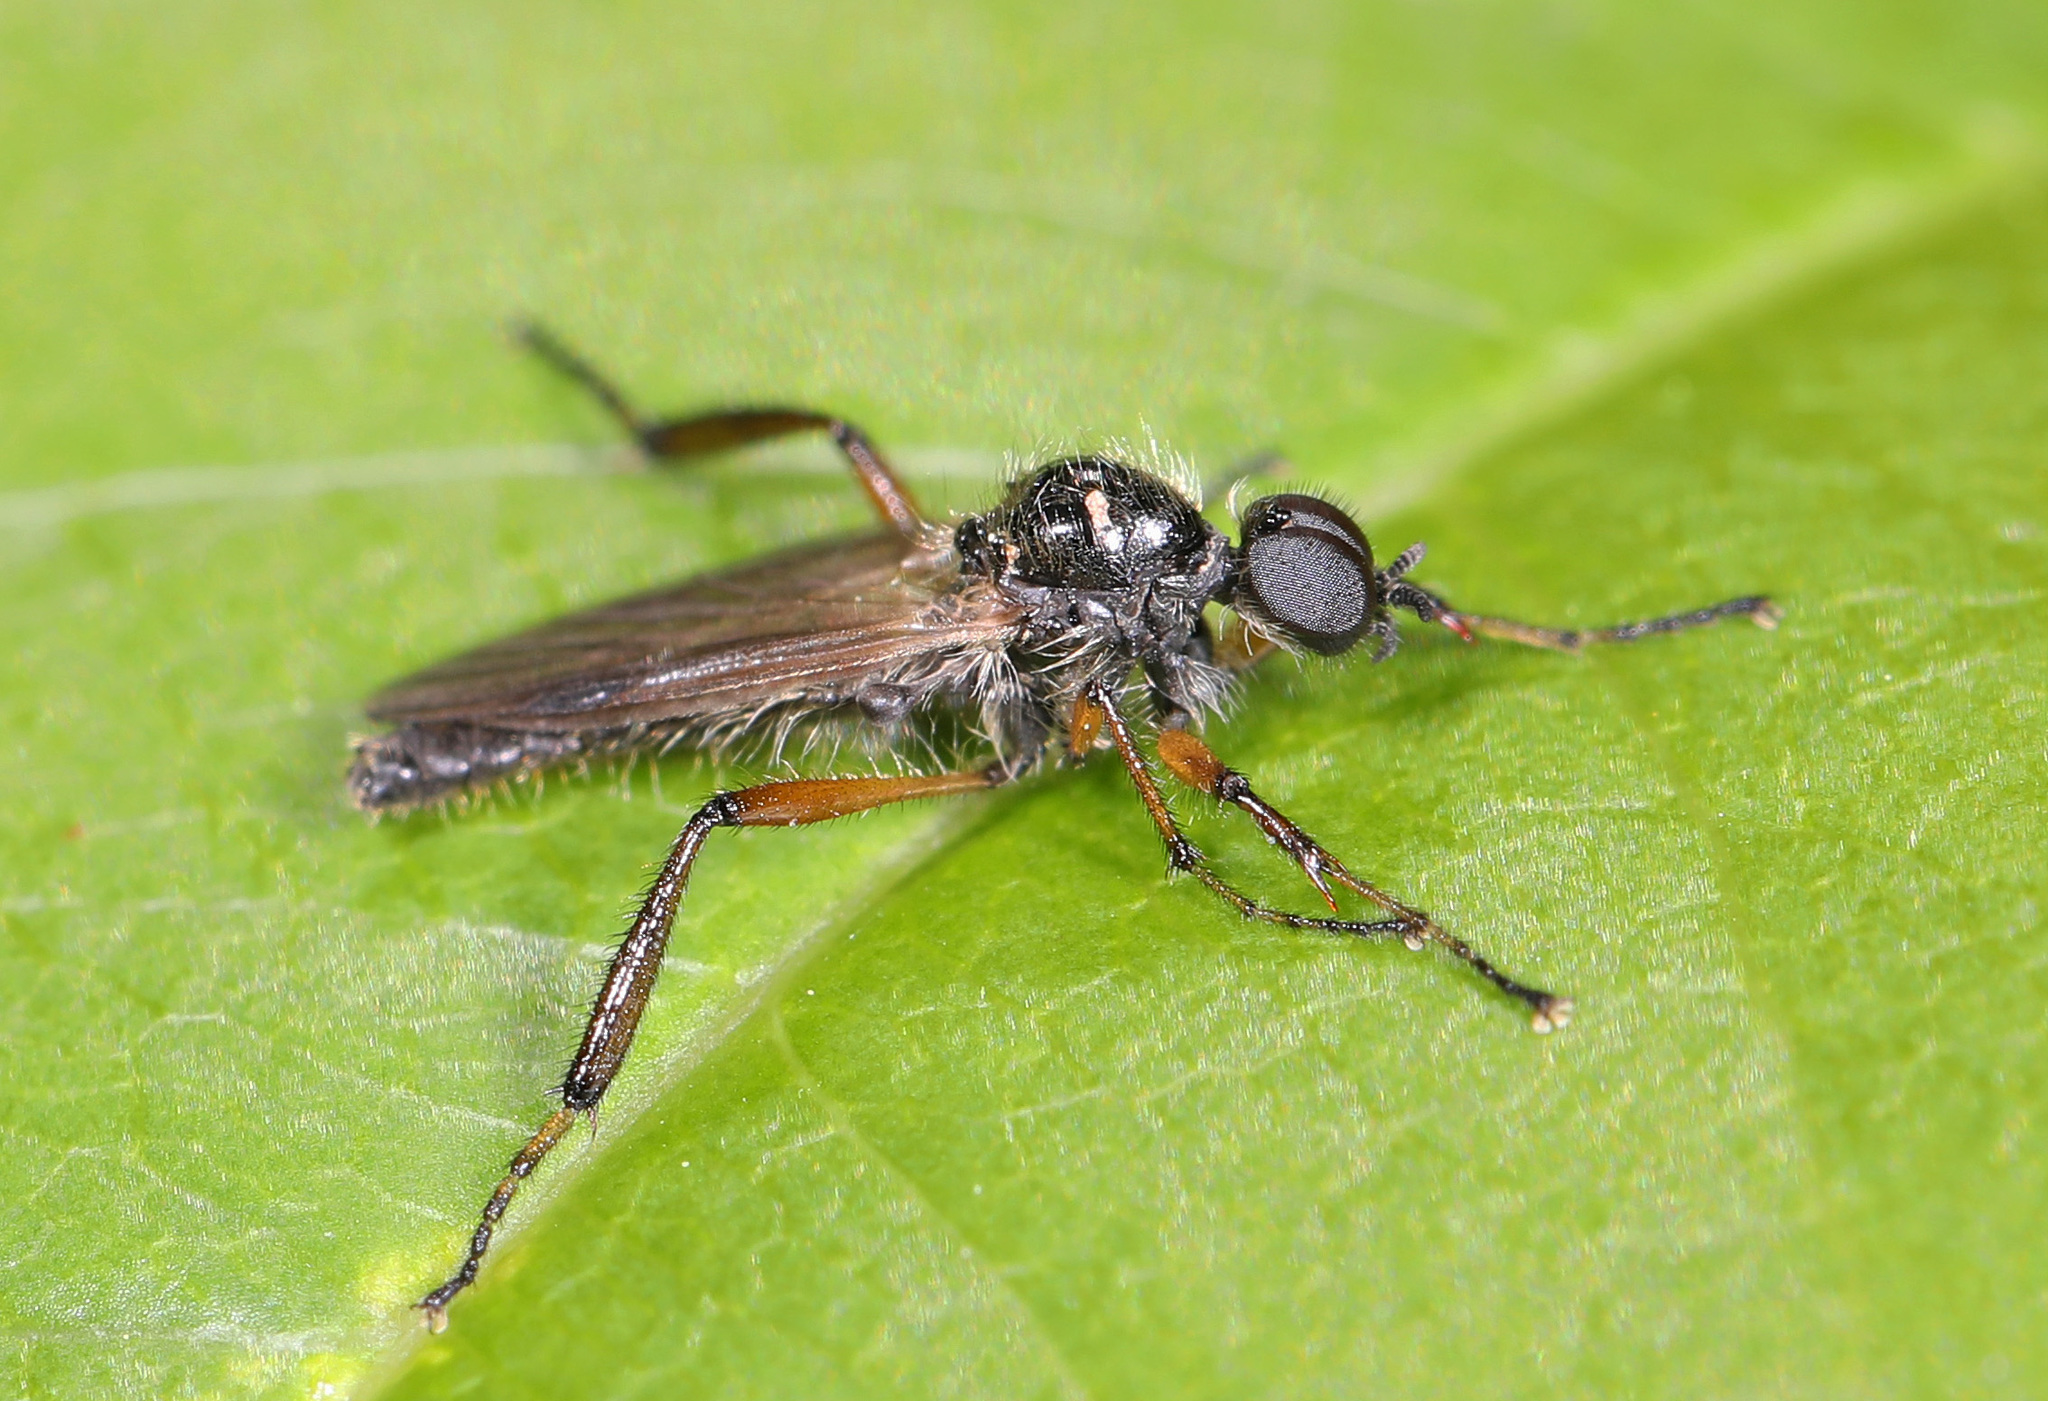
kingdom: Animalia
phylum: Arthropoda
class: Insecta
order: Diptera
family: Bibionidae
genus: Bibio
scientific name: Bibio articulatus
